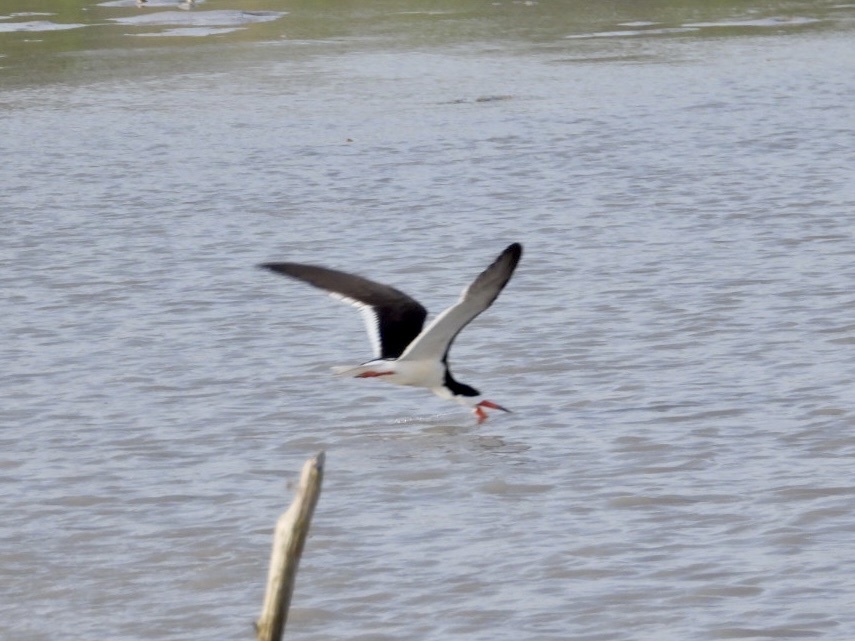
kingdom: Animalia
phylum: Chordata
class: Aves
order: Charadriiformes
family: Laridae
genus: Rynchops
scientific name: Rynchops niger
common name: Black skimmer
